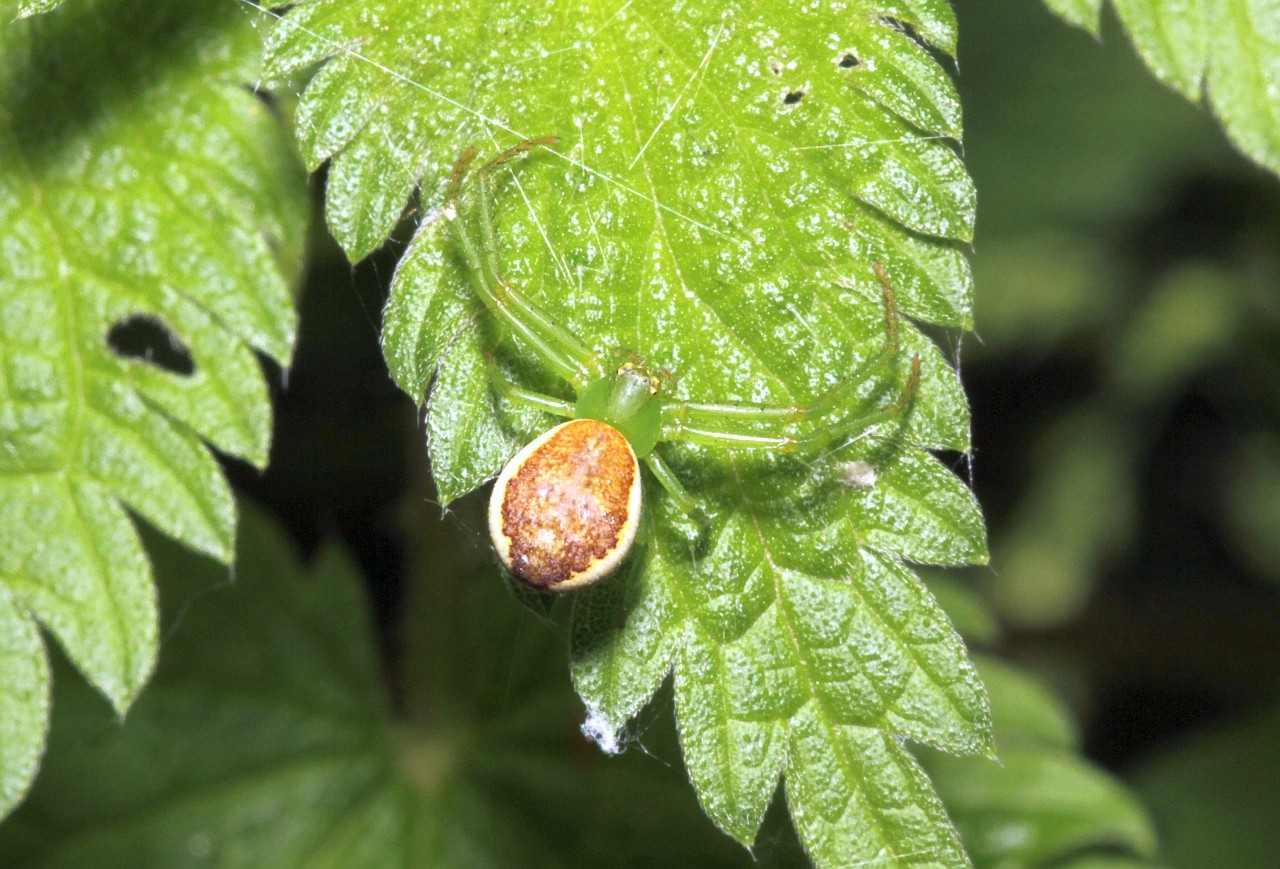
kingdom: Animalia
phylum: Arthropoda
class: Arachnida
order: Araneae
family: Thomisidae
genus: Diaea
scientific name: Diaea dorsata
